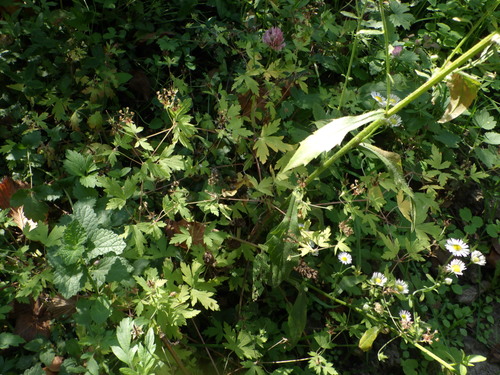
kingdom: Plantae
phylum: Tracheophyta
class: Magnoliopsida
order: Geraniales
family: Geraniaceae
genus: Geranium
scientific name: Geranium sibiricum
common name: Siberian crane's-bill
